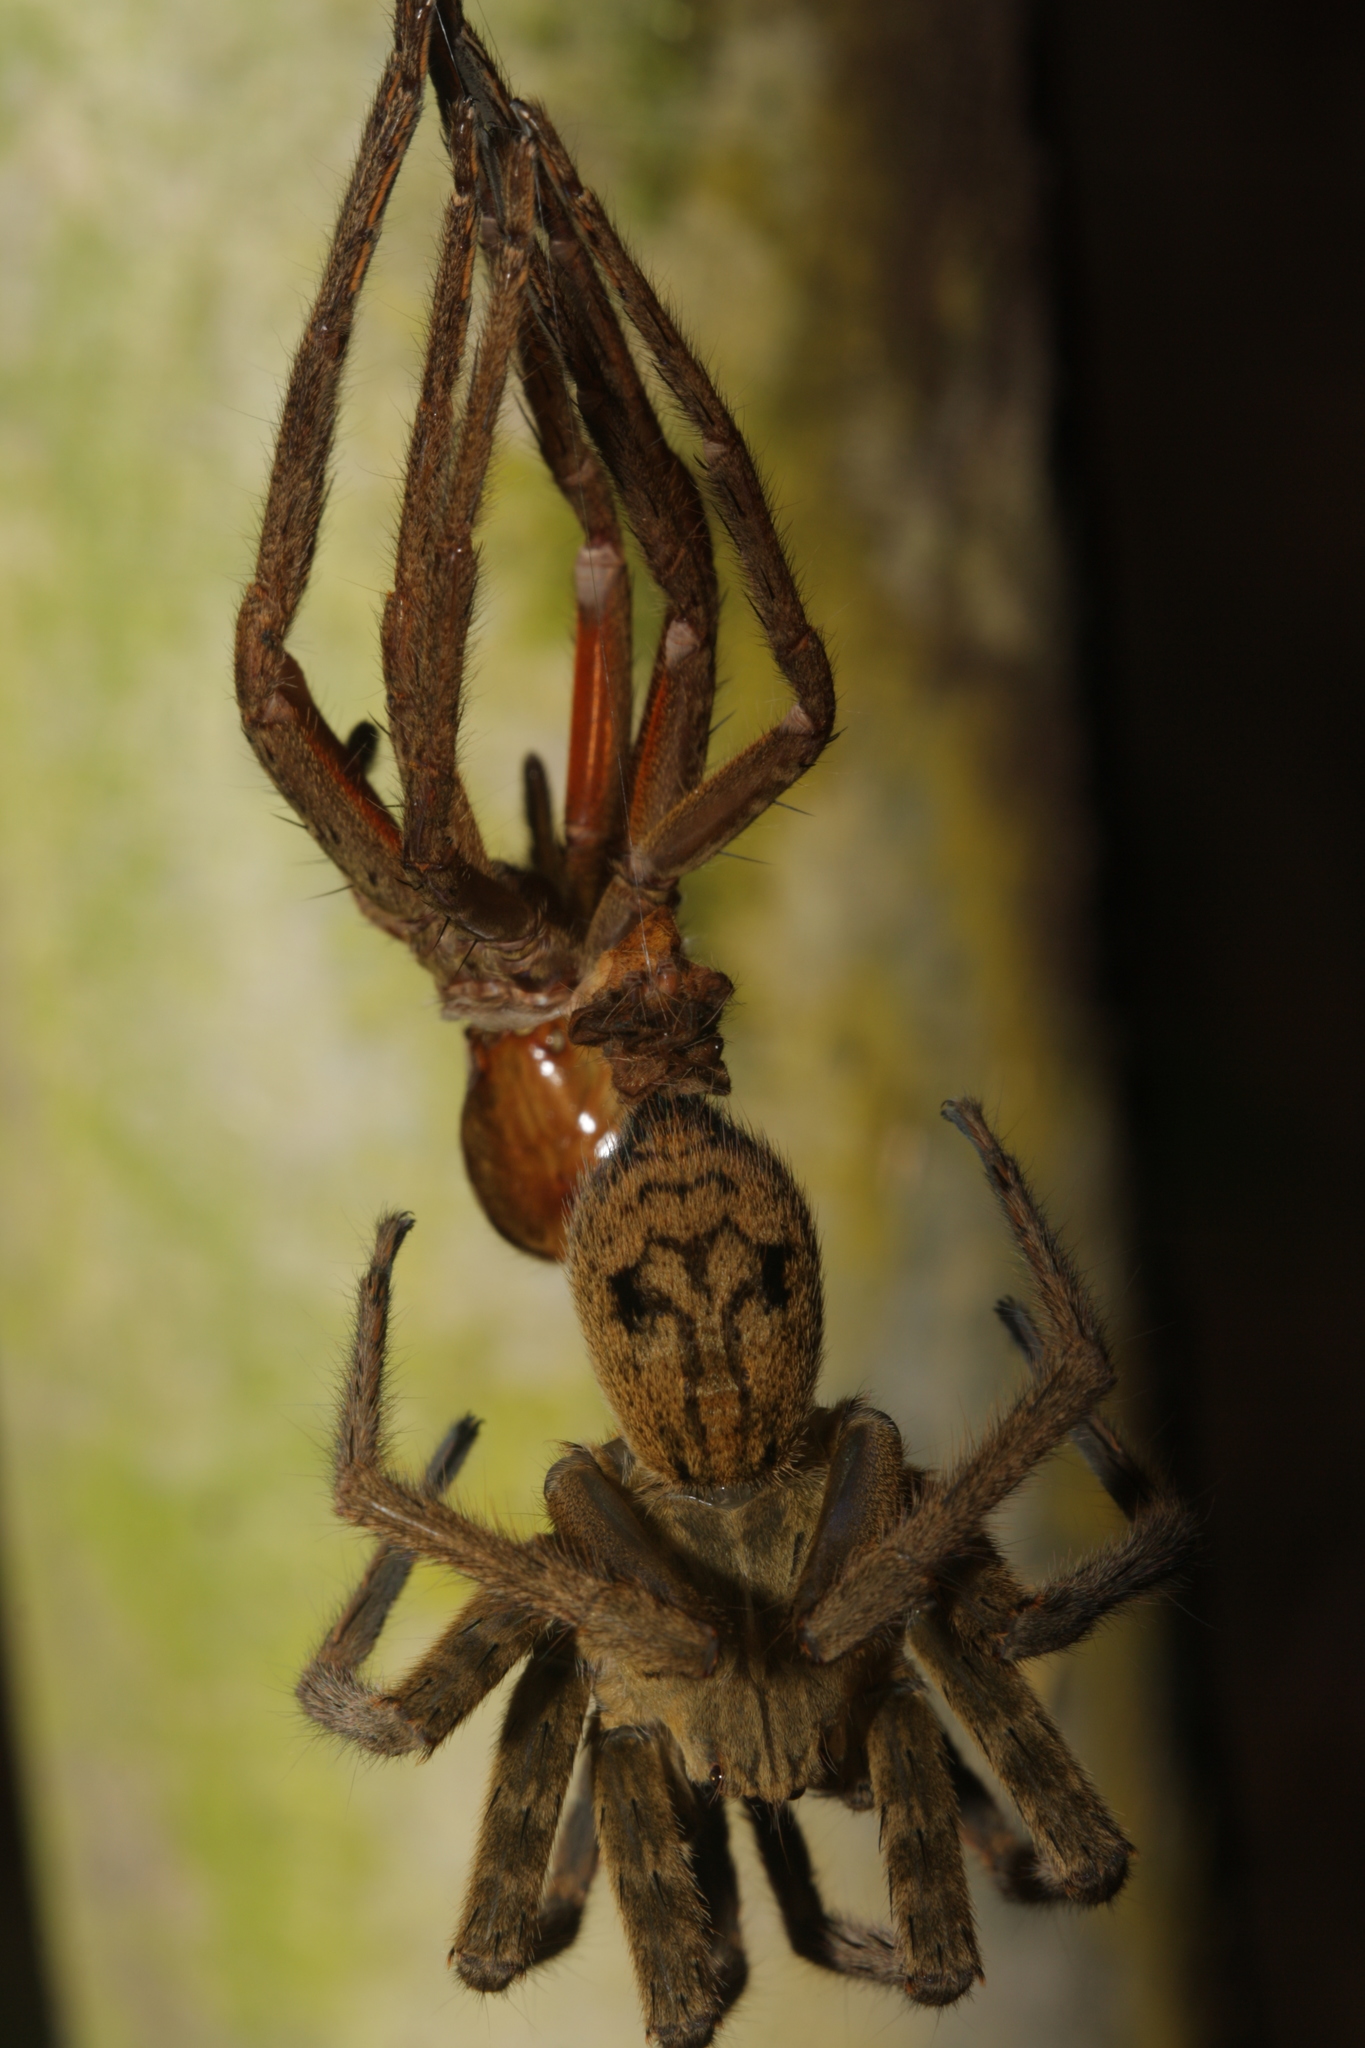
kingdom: Animalia
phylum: Arthropoda
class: Arachnida
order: Araneae
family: Trechaleidae
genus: Cupiennius
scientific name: Cupiennius coccineus
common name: Wandering spiders
